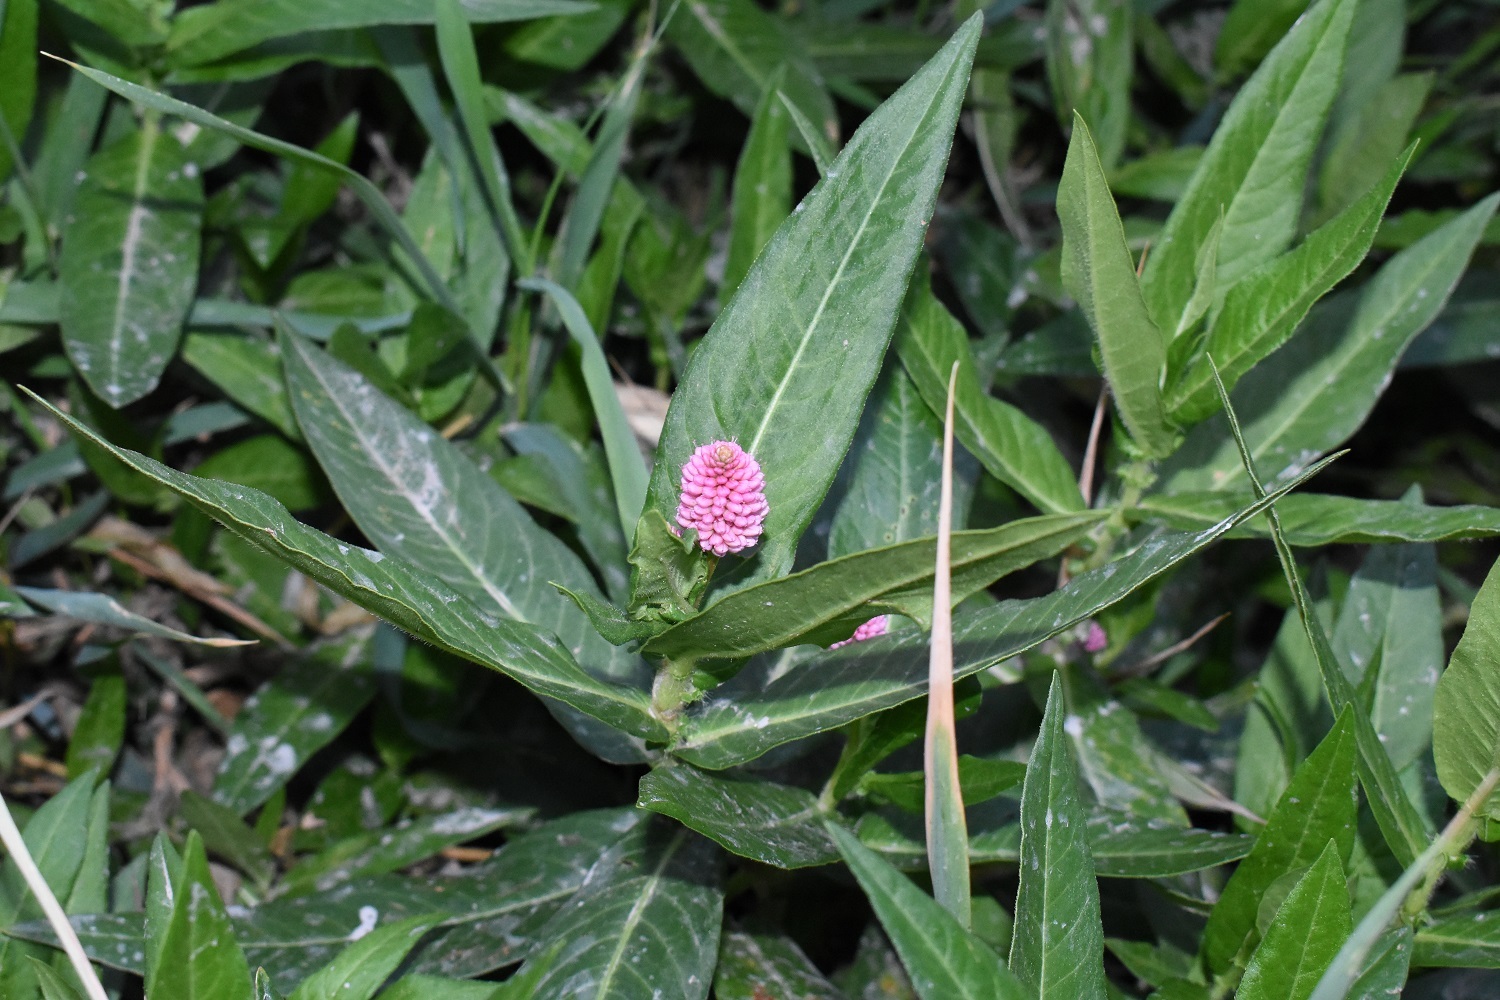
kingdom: Plantae
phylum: Tracheophyta
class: Magnoliopsida
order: Caryophyllales
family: Polygonaceae
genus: Persicaria
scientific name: Persicaria amphibia
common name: Amphibious bistort
